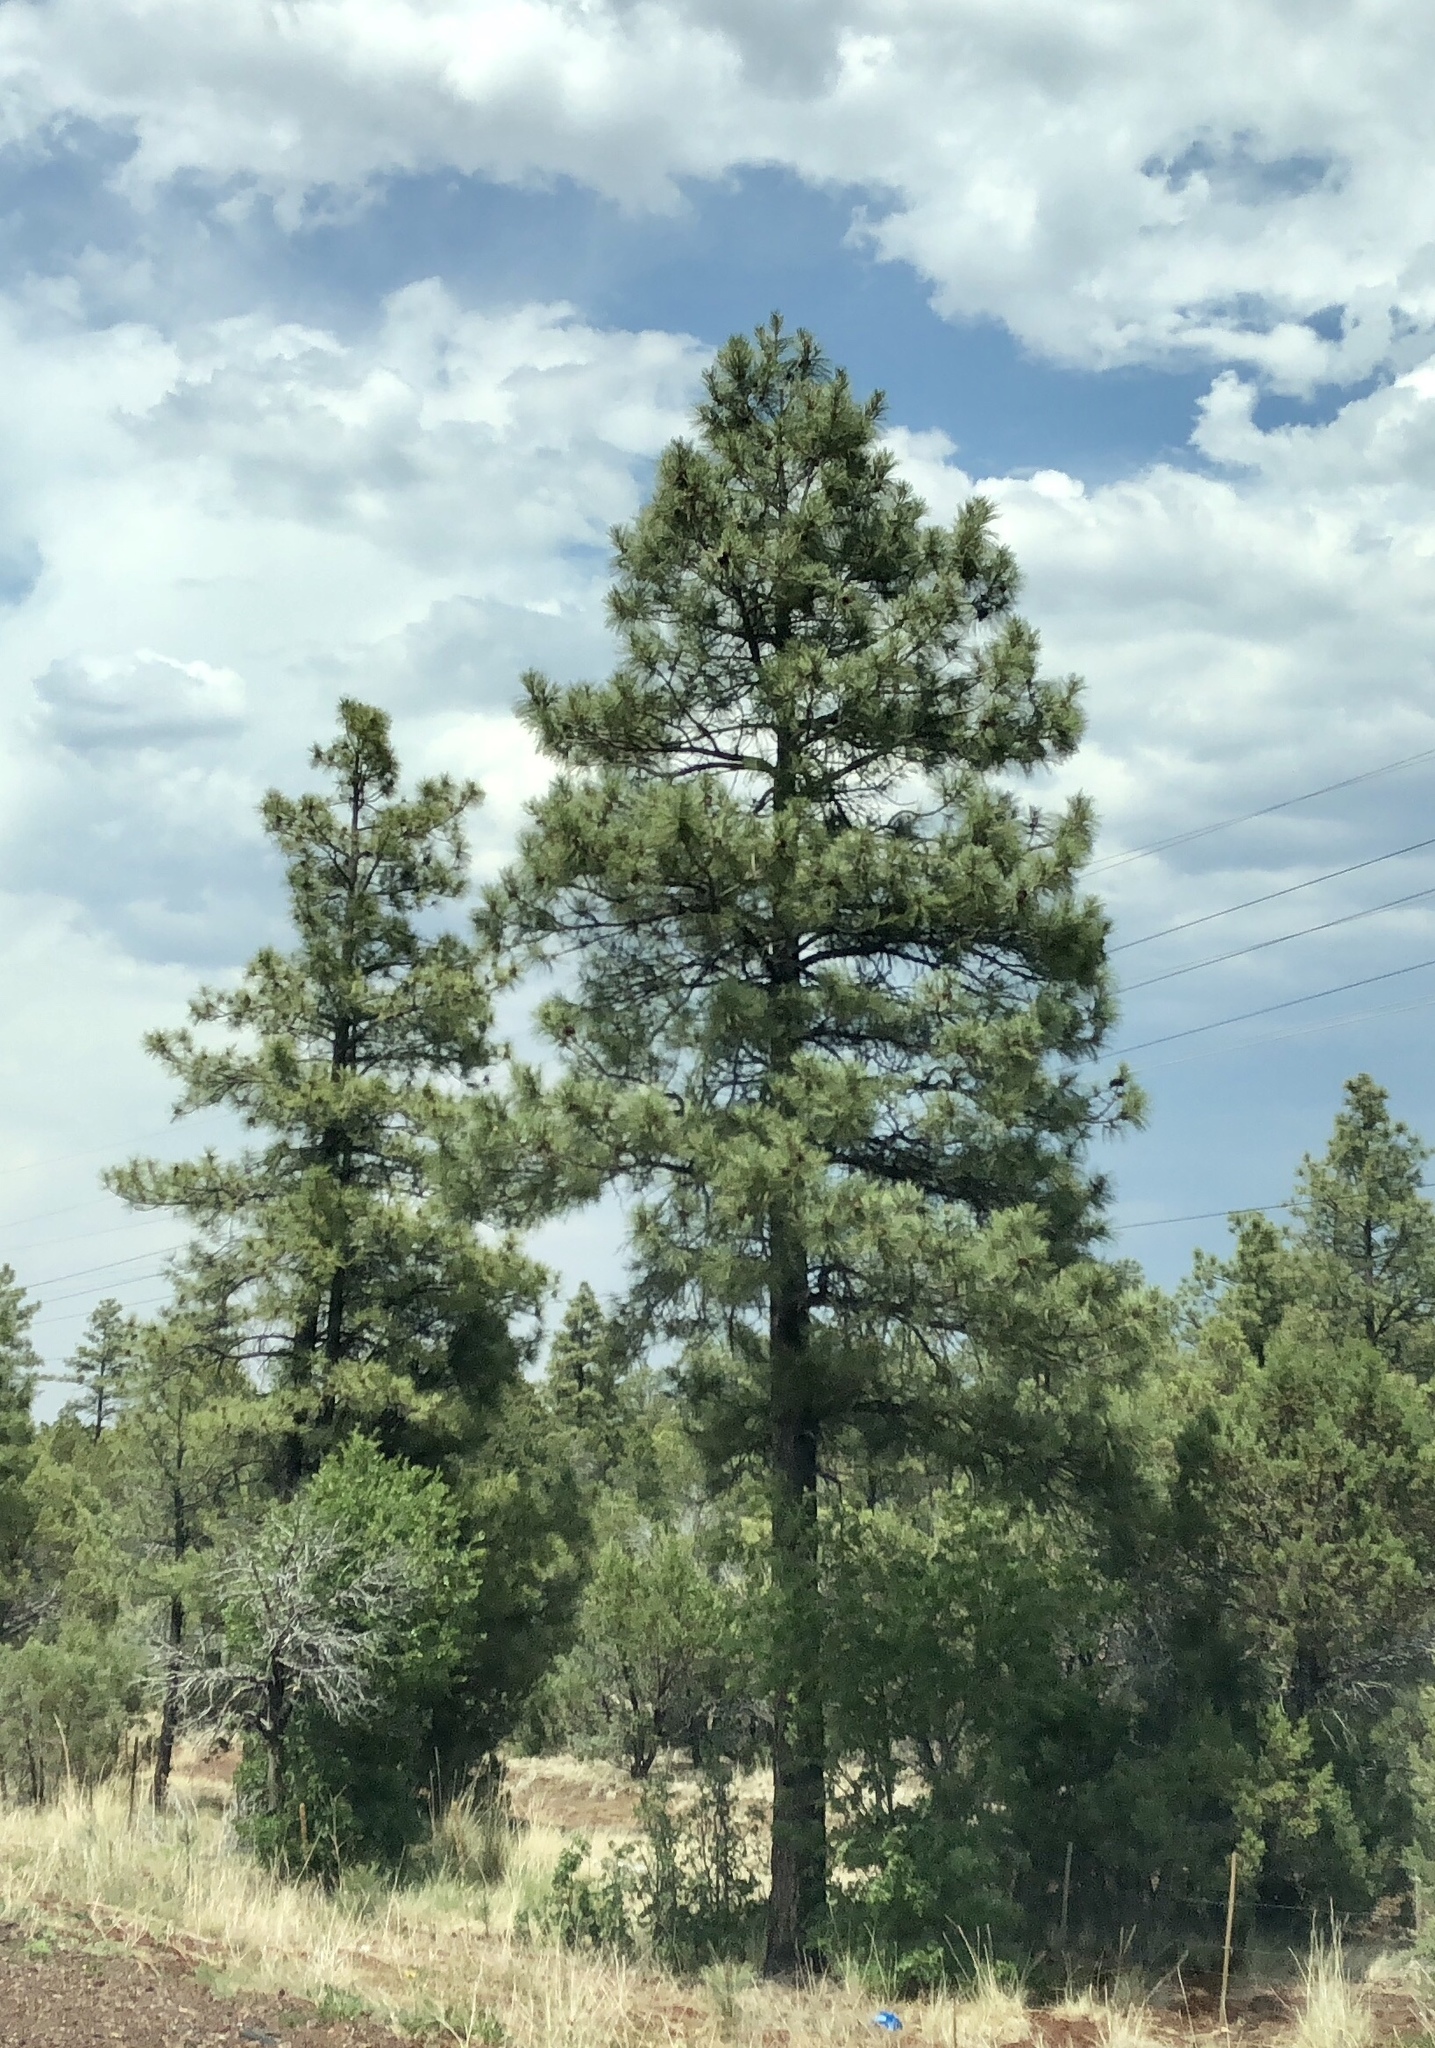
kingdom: Plantae
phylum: Tracheophyta
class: Pinopsida
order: Pinales
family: Pinaceae
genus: Pinus
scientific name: Pinus ponderosa
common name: Western yellow-pine
